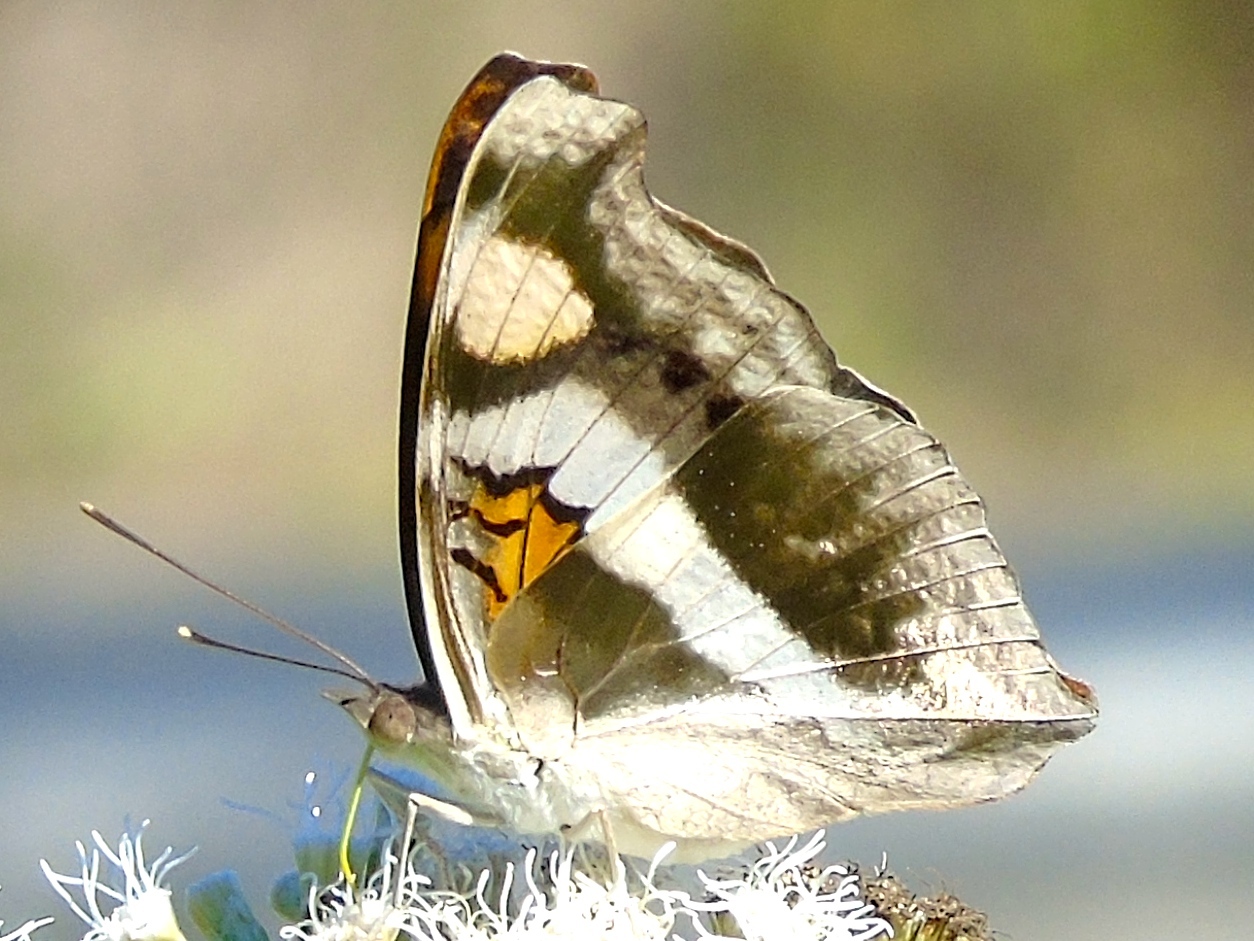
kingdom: Animalia
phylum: Arthropoda
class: Insecta
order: Lepidoptera
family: Nymphalidae
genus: Doxocopa
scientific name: Doxocopa laure
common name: Silver emperor
